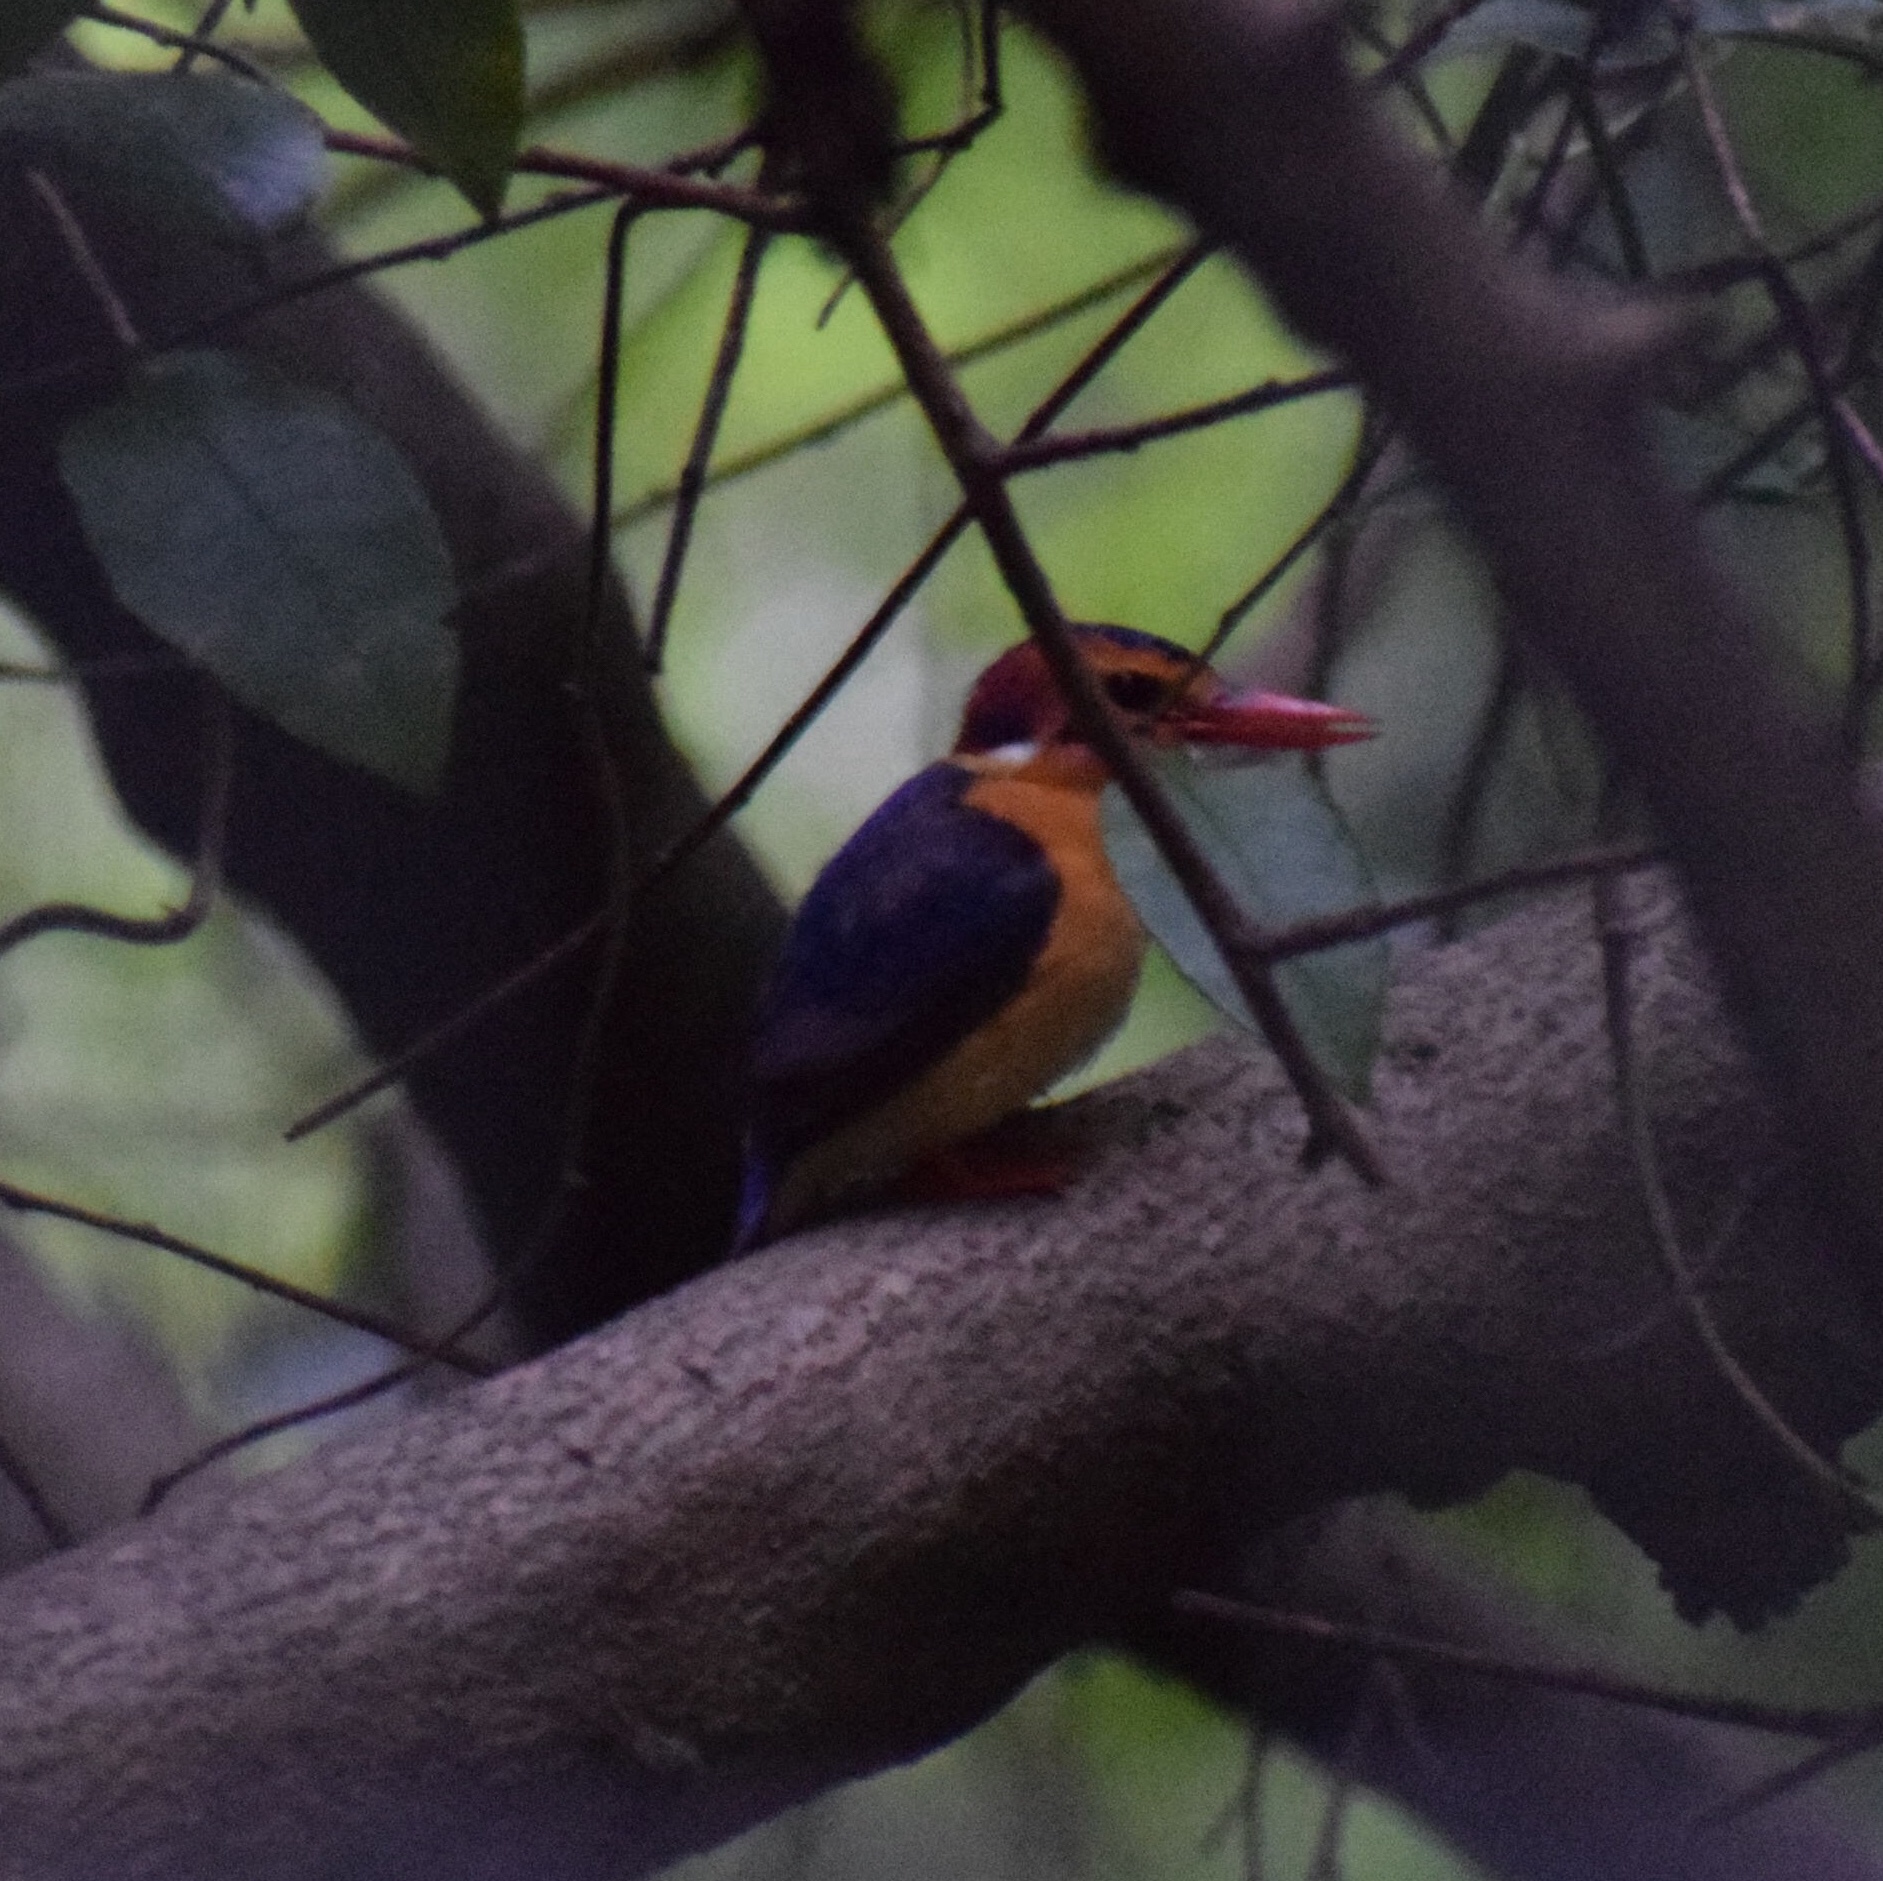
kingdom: Animalia
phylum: Chordata
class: Aves
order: Coraciiformes
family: Alcedinidae
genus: Ispidina
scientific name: Ispidina picta
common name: African pygmy-kingfisher
